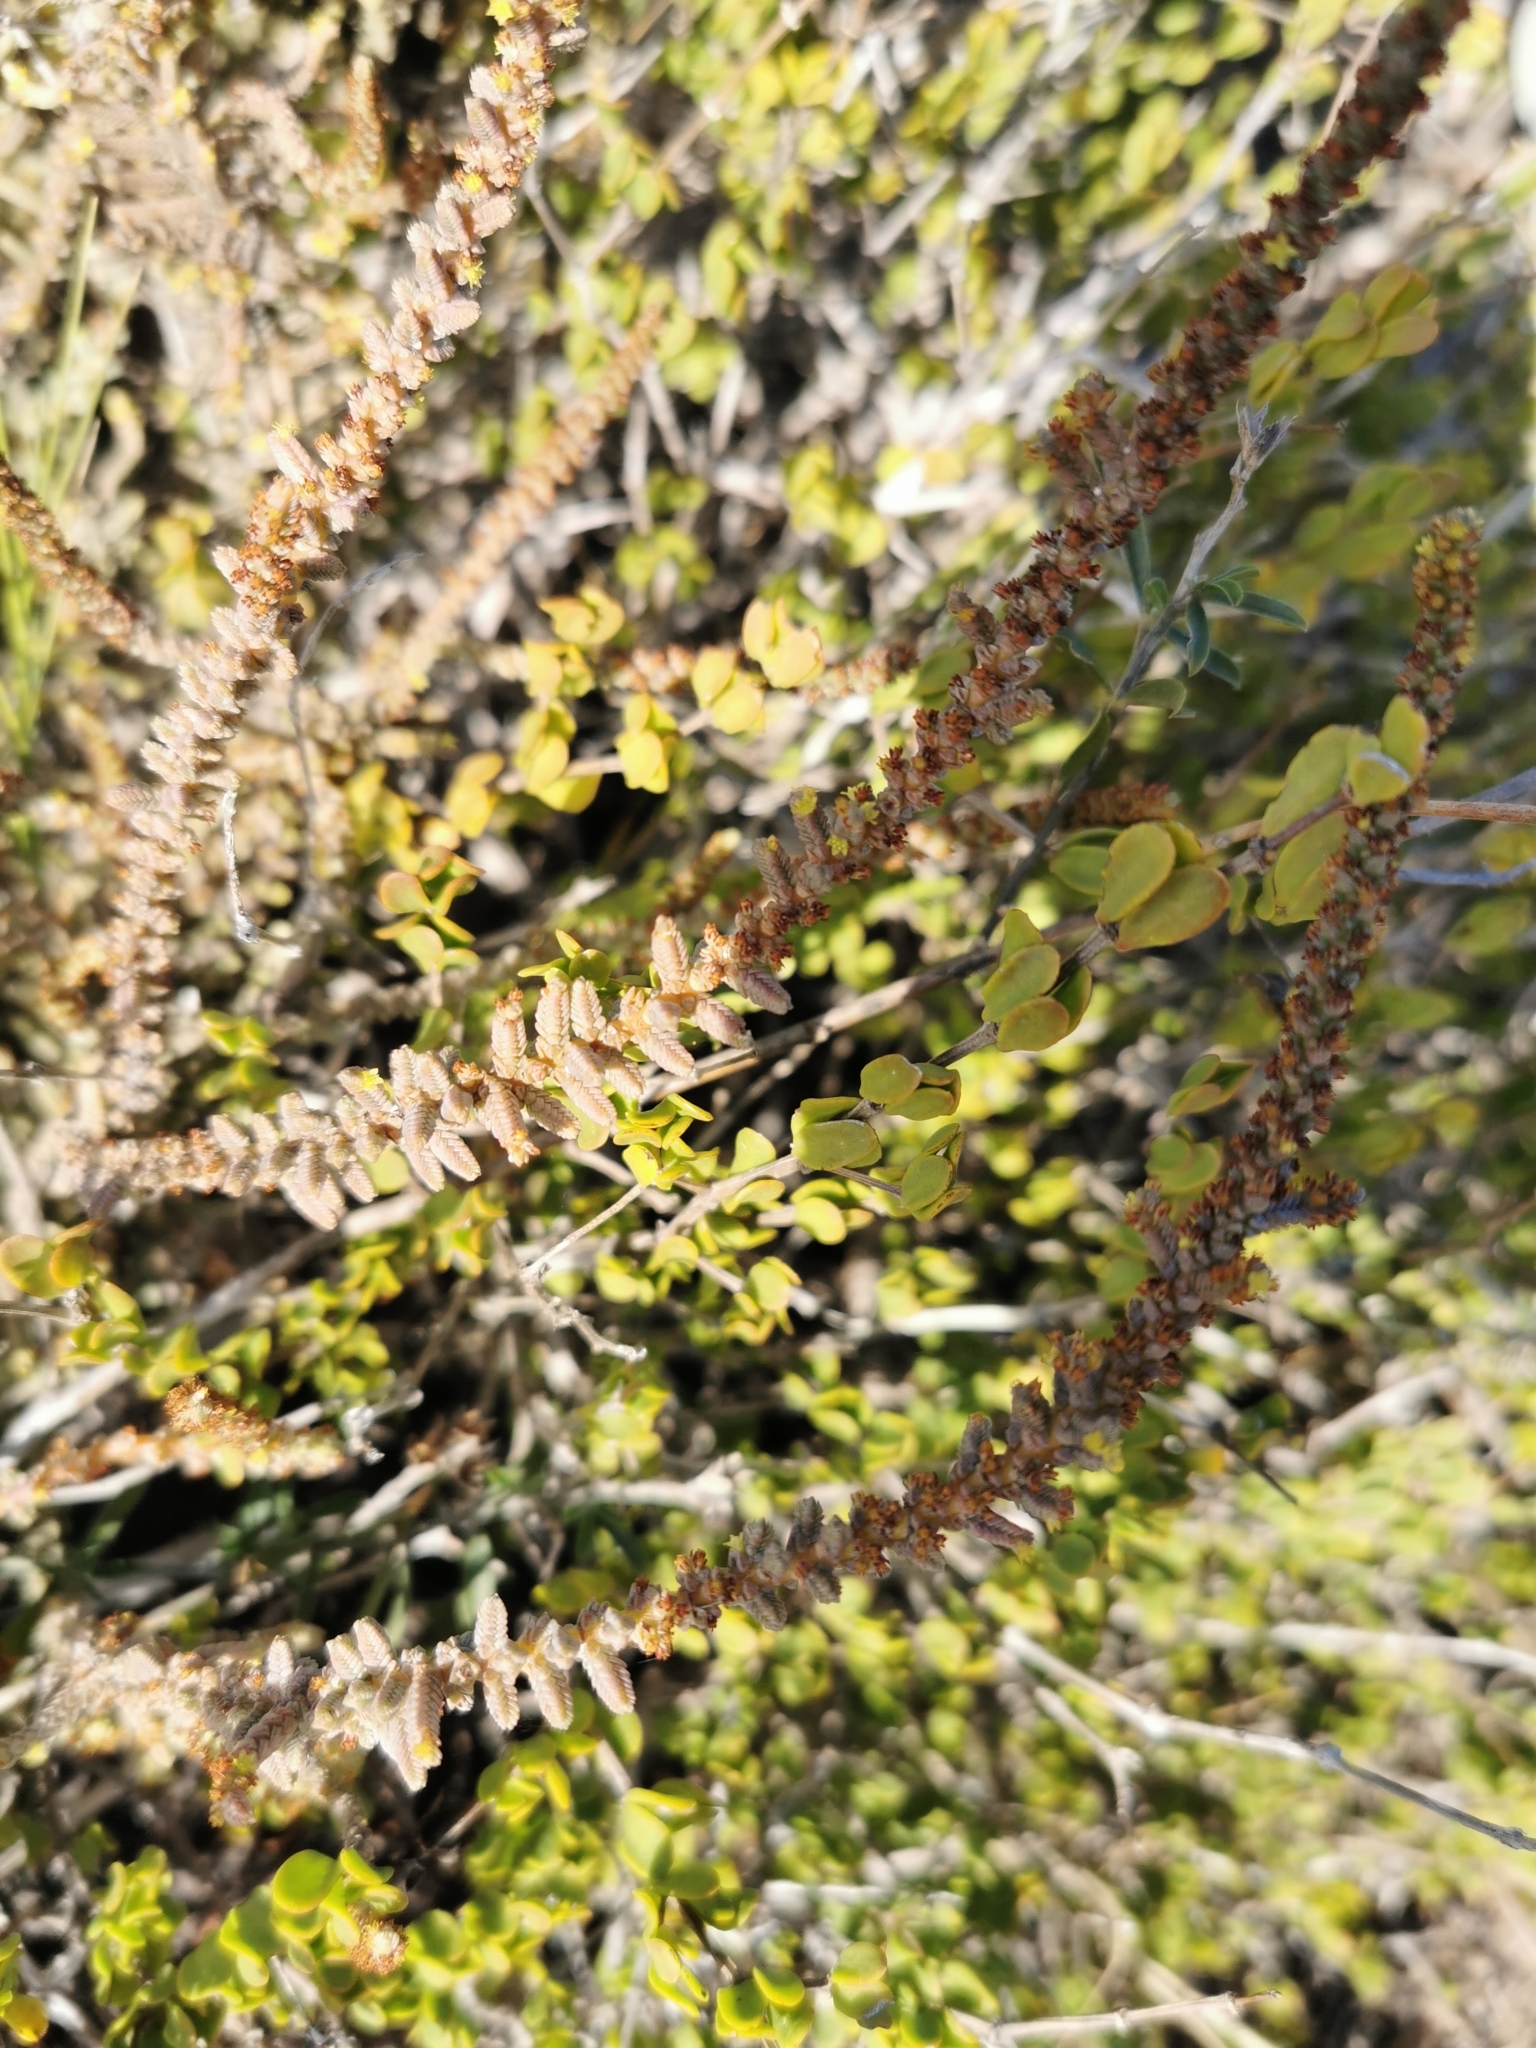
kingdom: Plantae
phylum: Tracheophyta
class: Magnoliopsida
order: Saxifragales
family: Crassulaceae
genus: Crassula
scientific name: Crassula muscosa
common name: Toy-cypress
